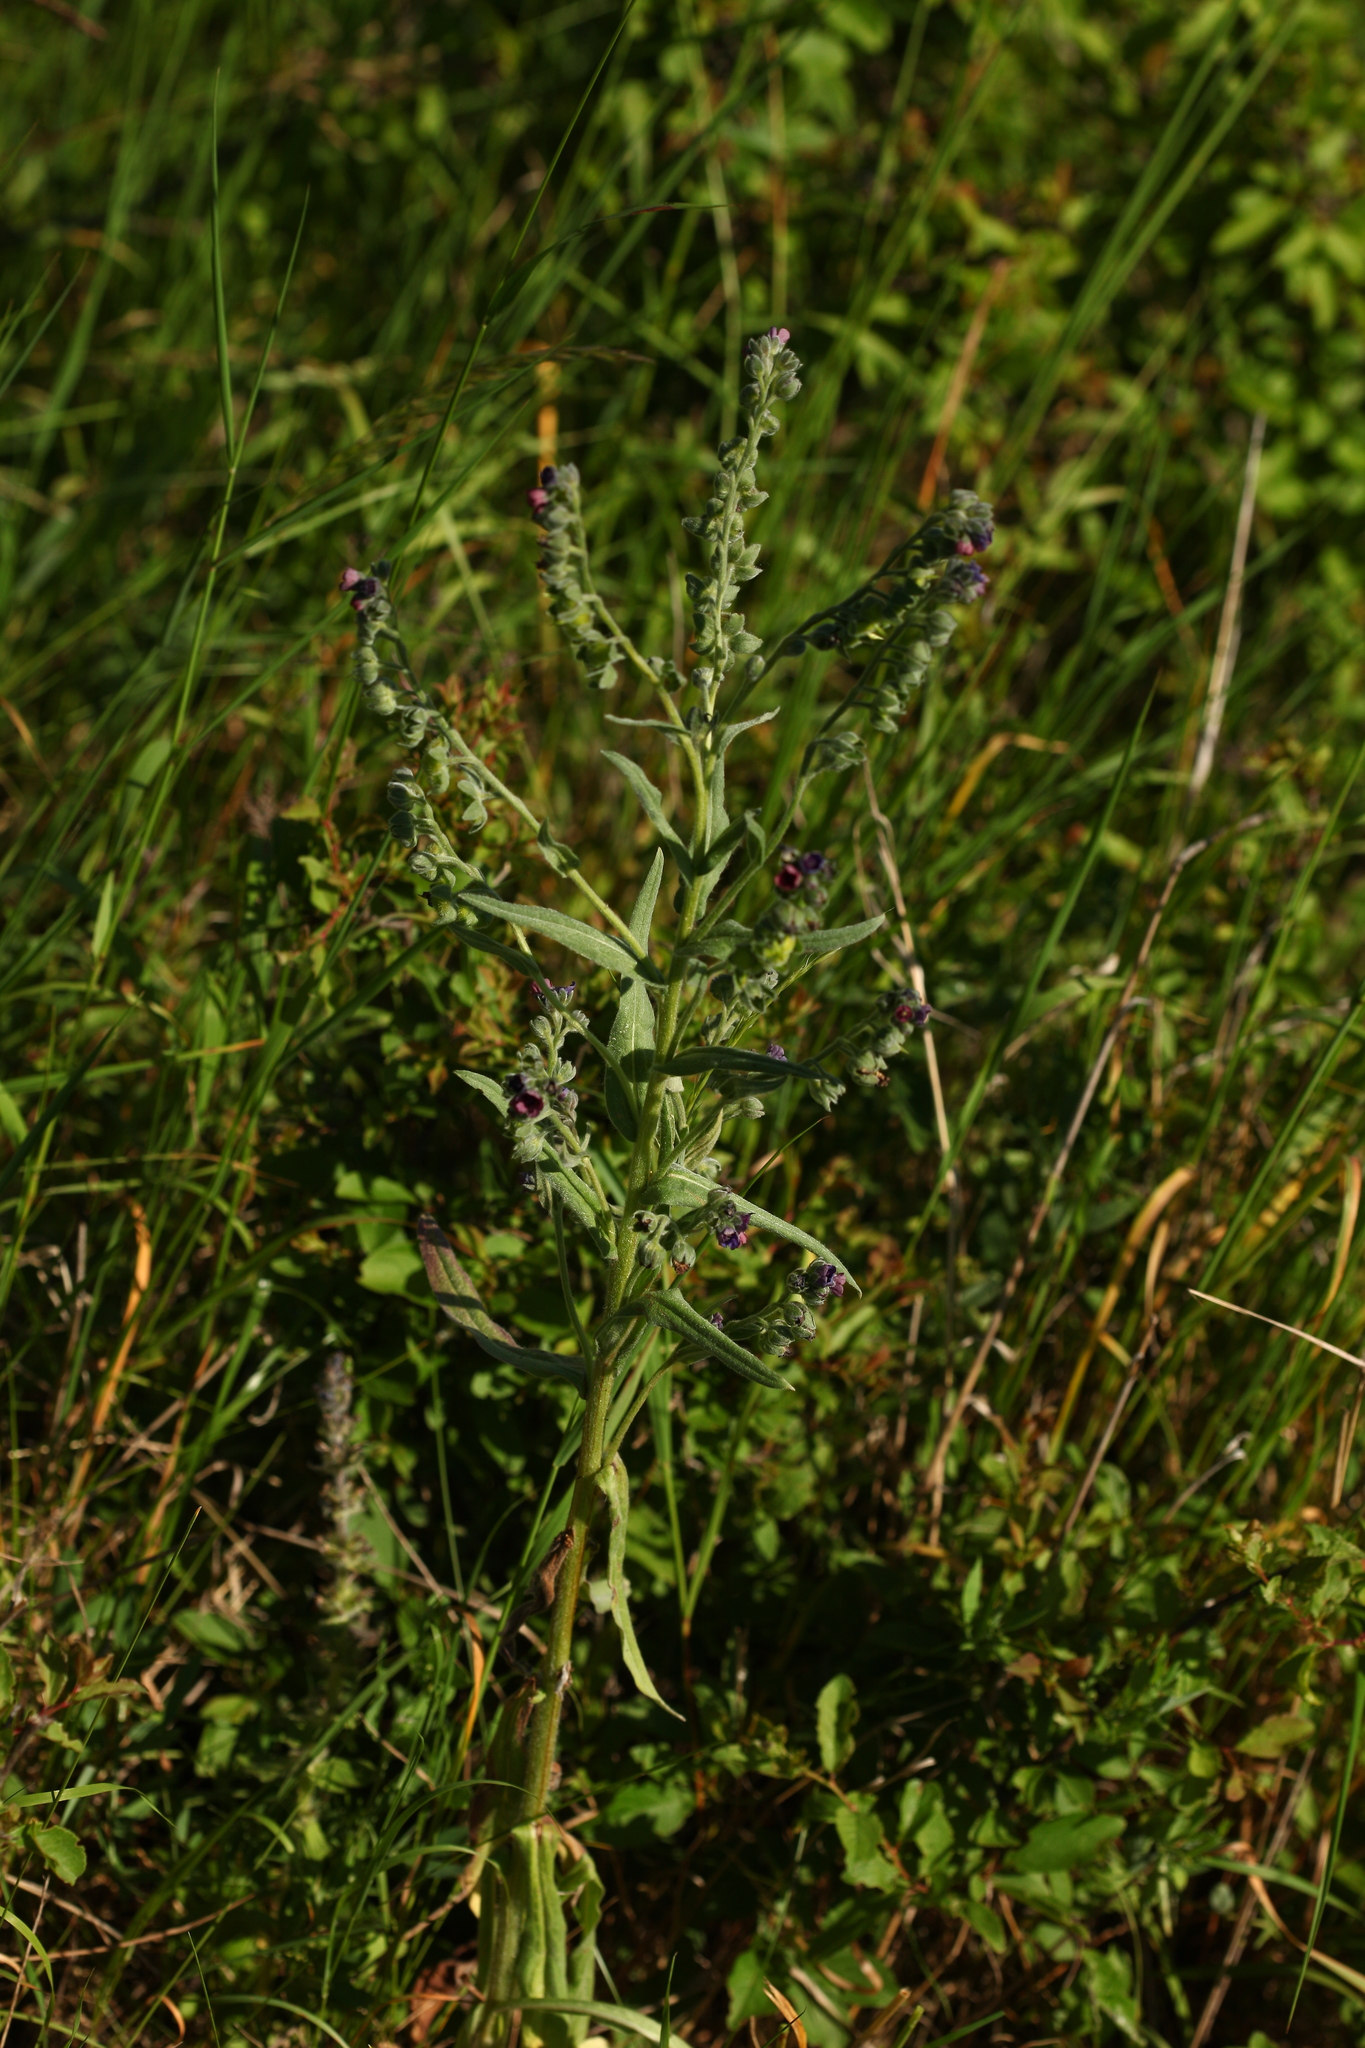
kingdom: Plantae
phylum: Tracheophyta
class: Magnoliopsida
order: Boraginales
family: Boraginaceae
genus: Cynoglossum
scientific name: Cynoglossum officinale
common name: Hound's-tongue
